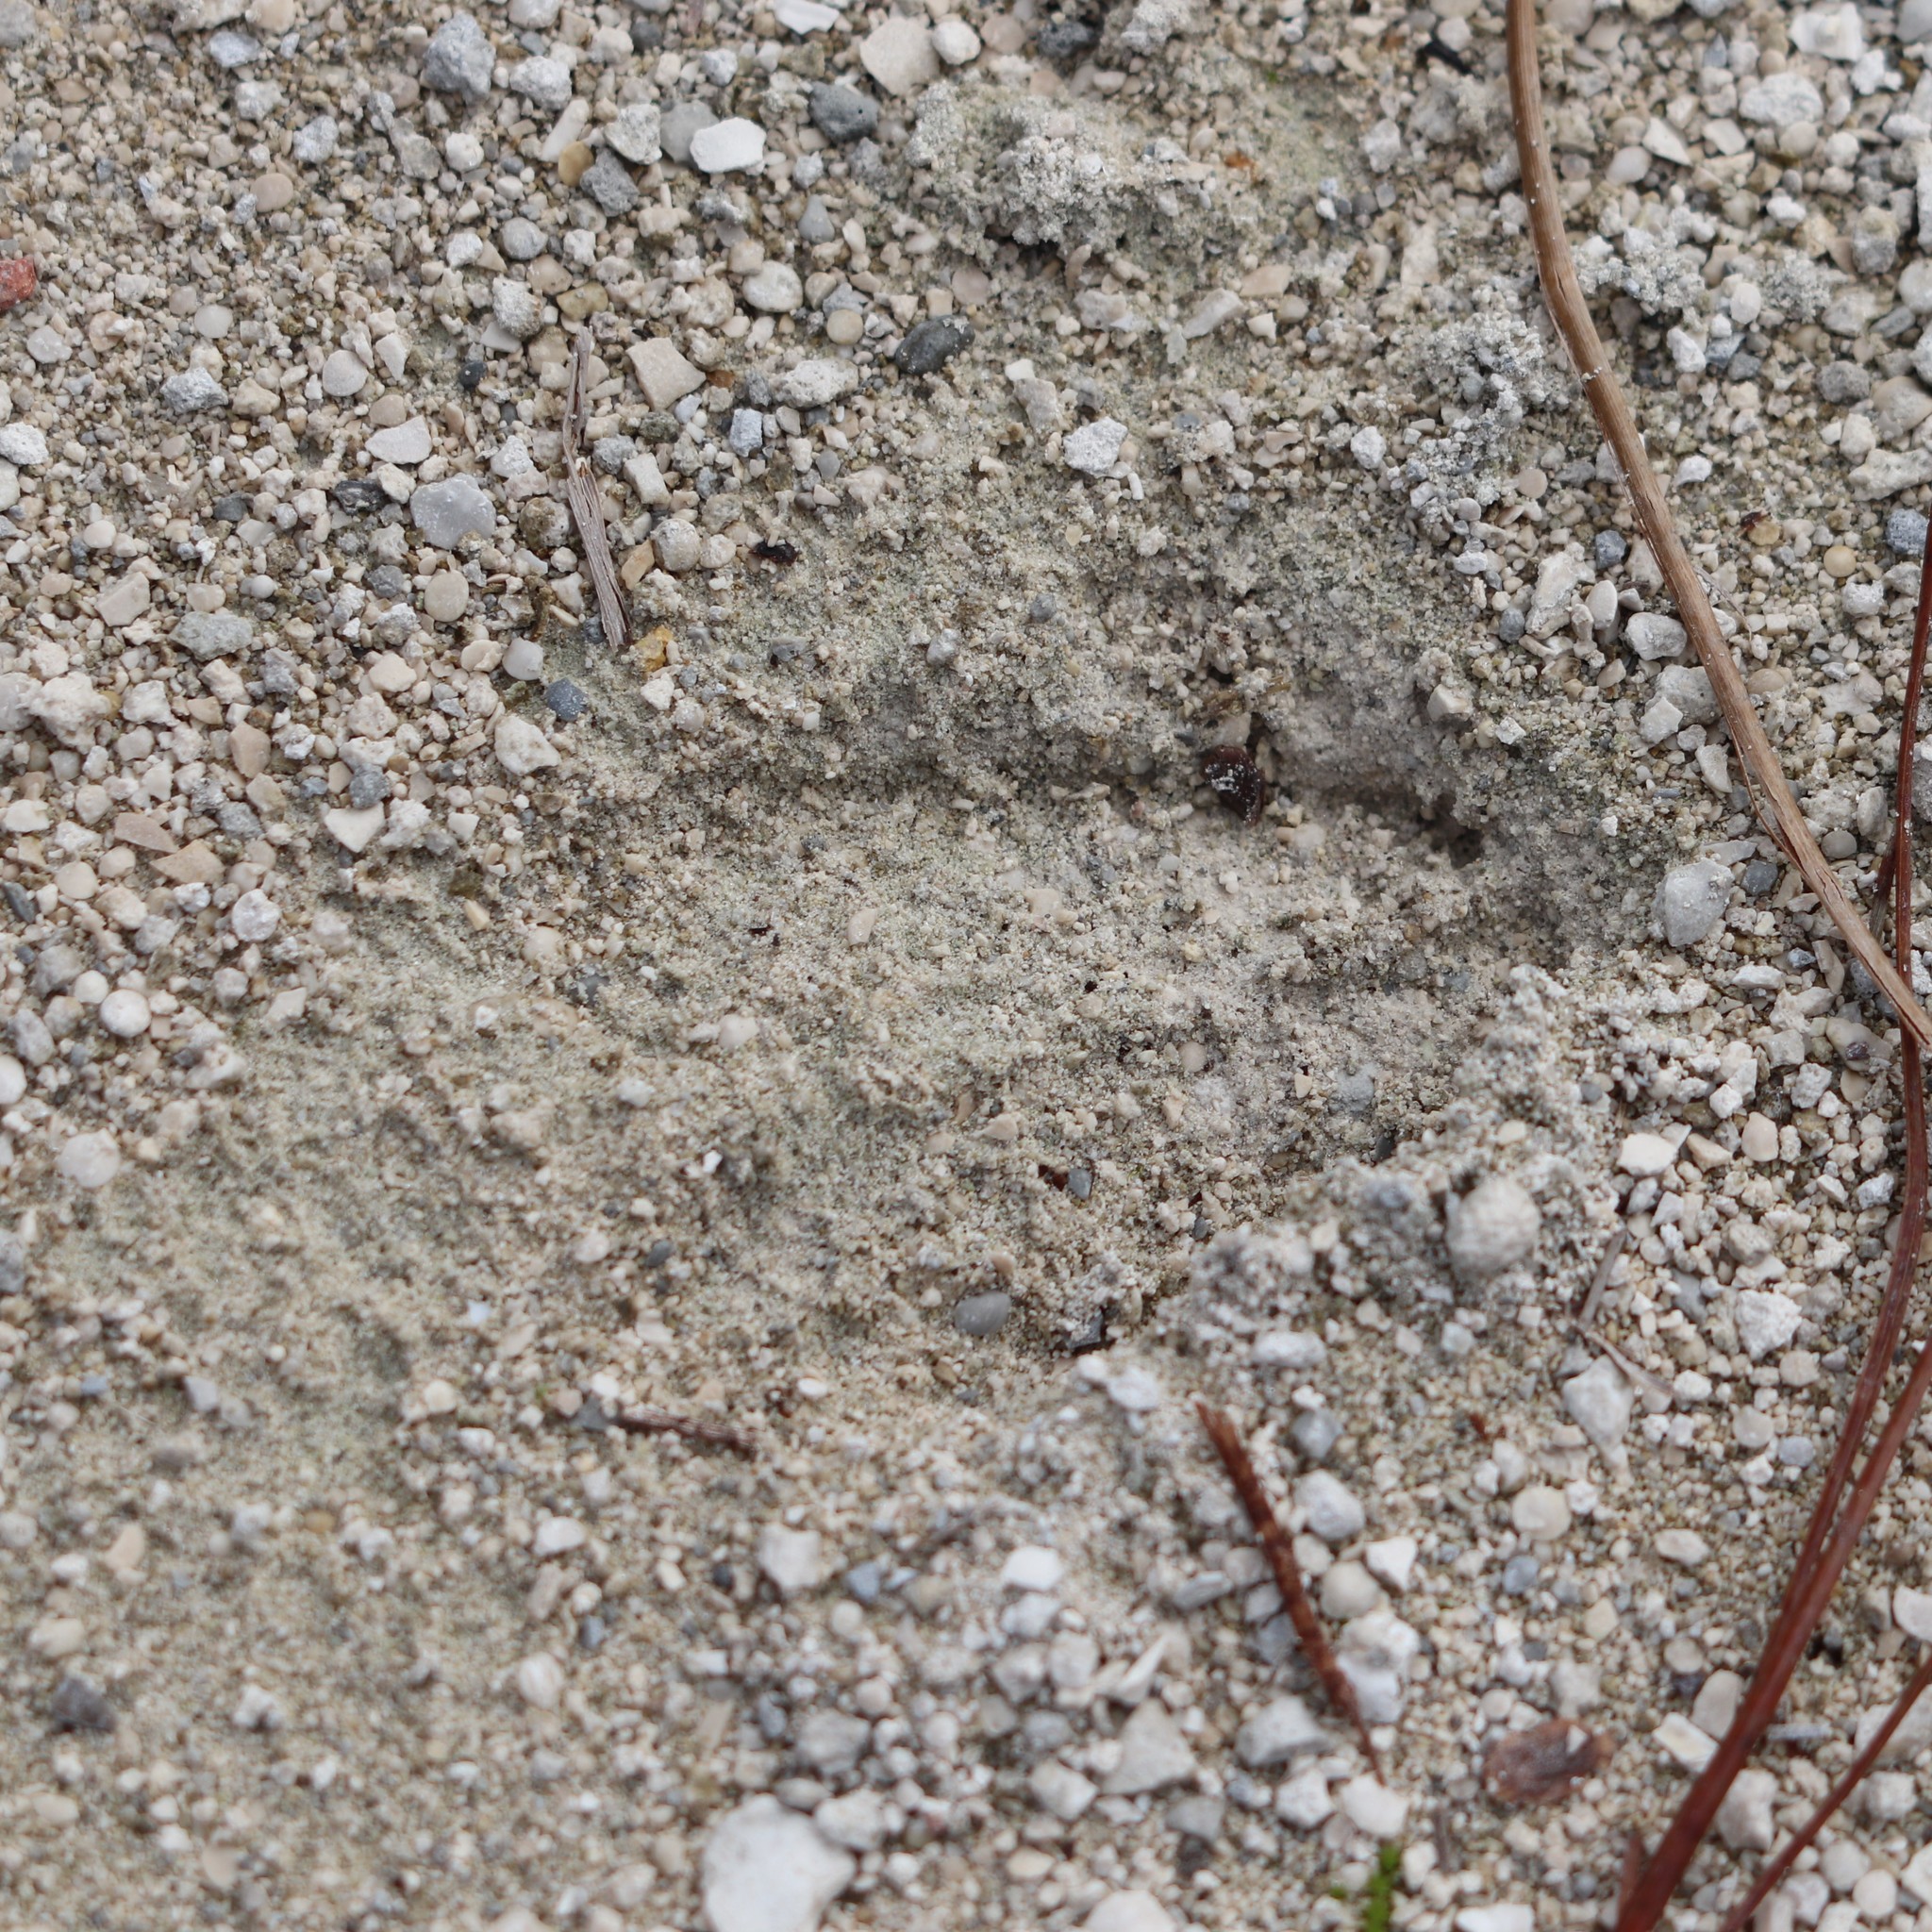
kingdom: Animalia
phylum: Chordata
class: Mammalia
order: Artiodactyla
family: Cervidae
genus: Odocoileus
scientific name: Odocoileus virginianus
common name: White-tailed deer
